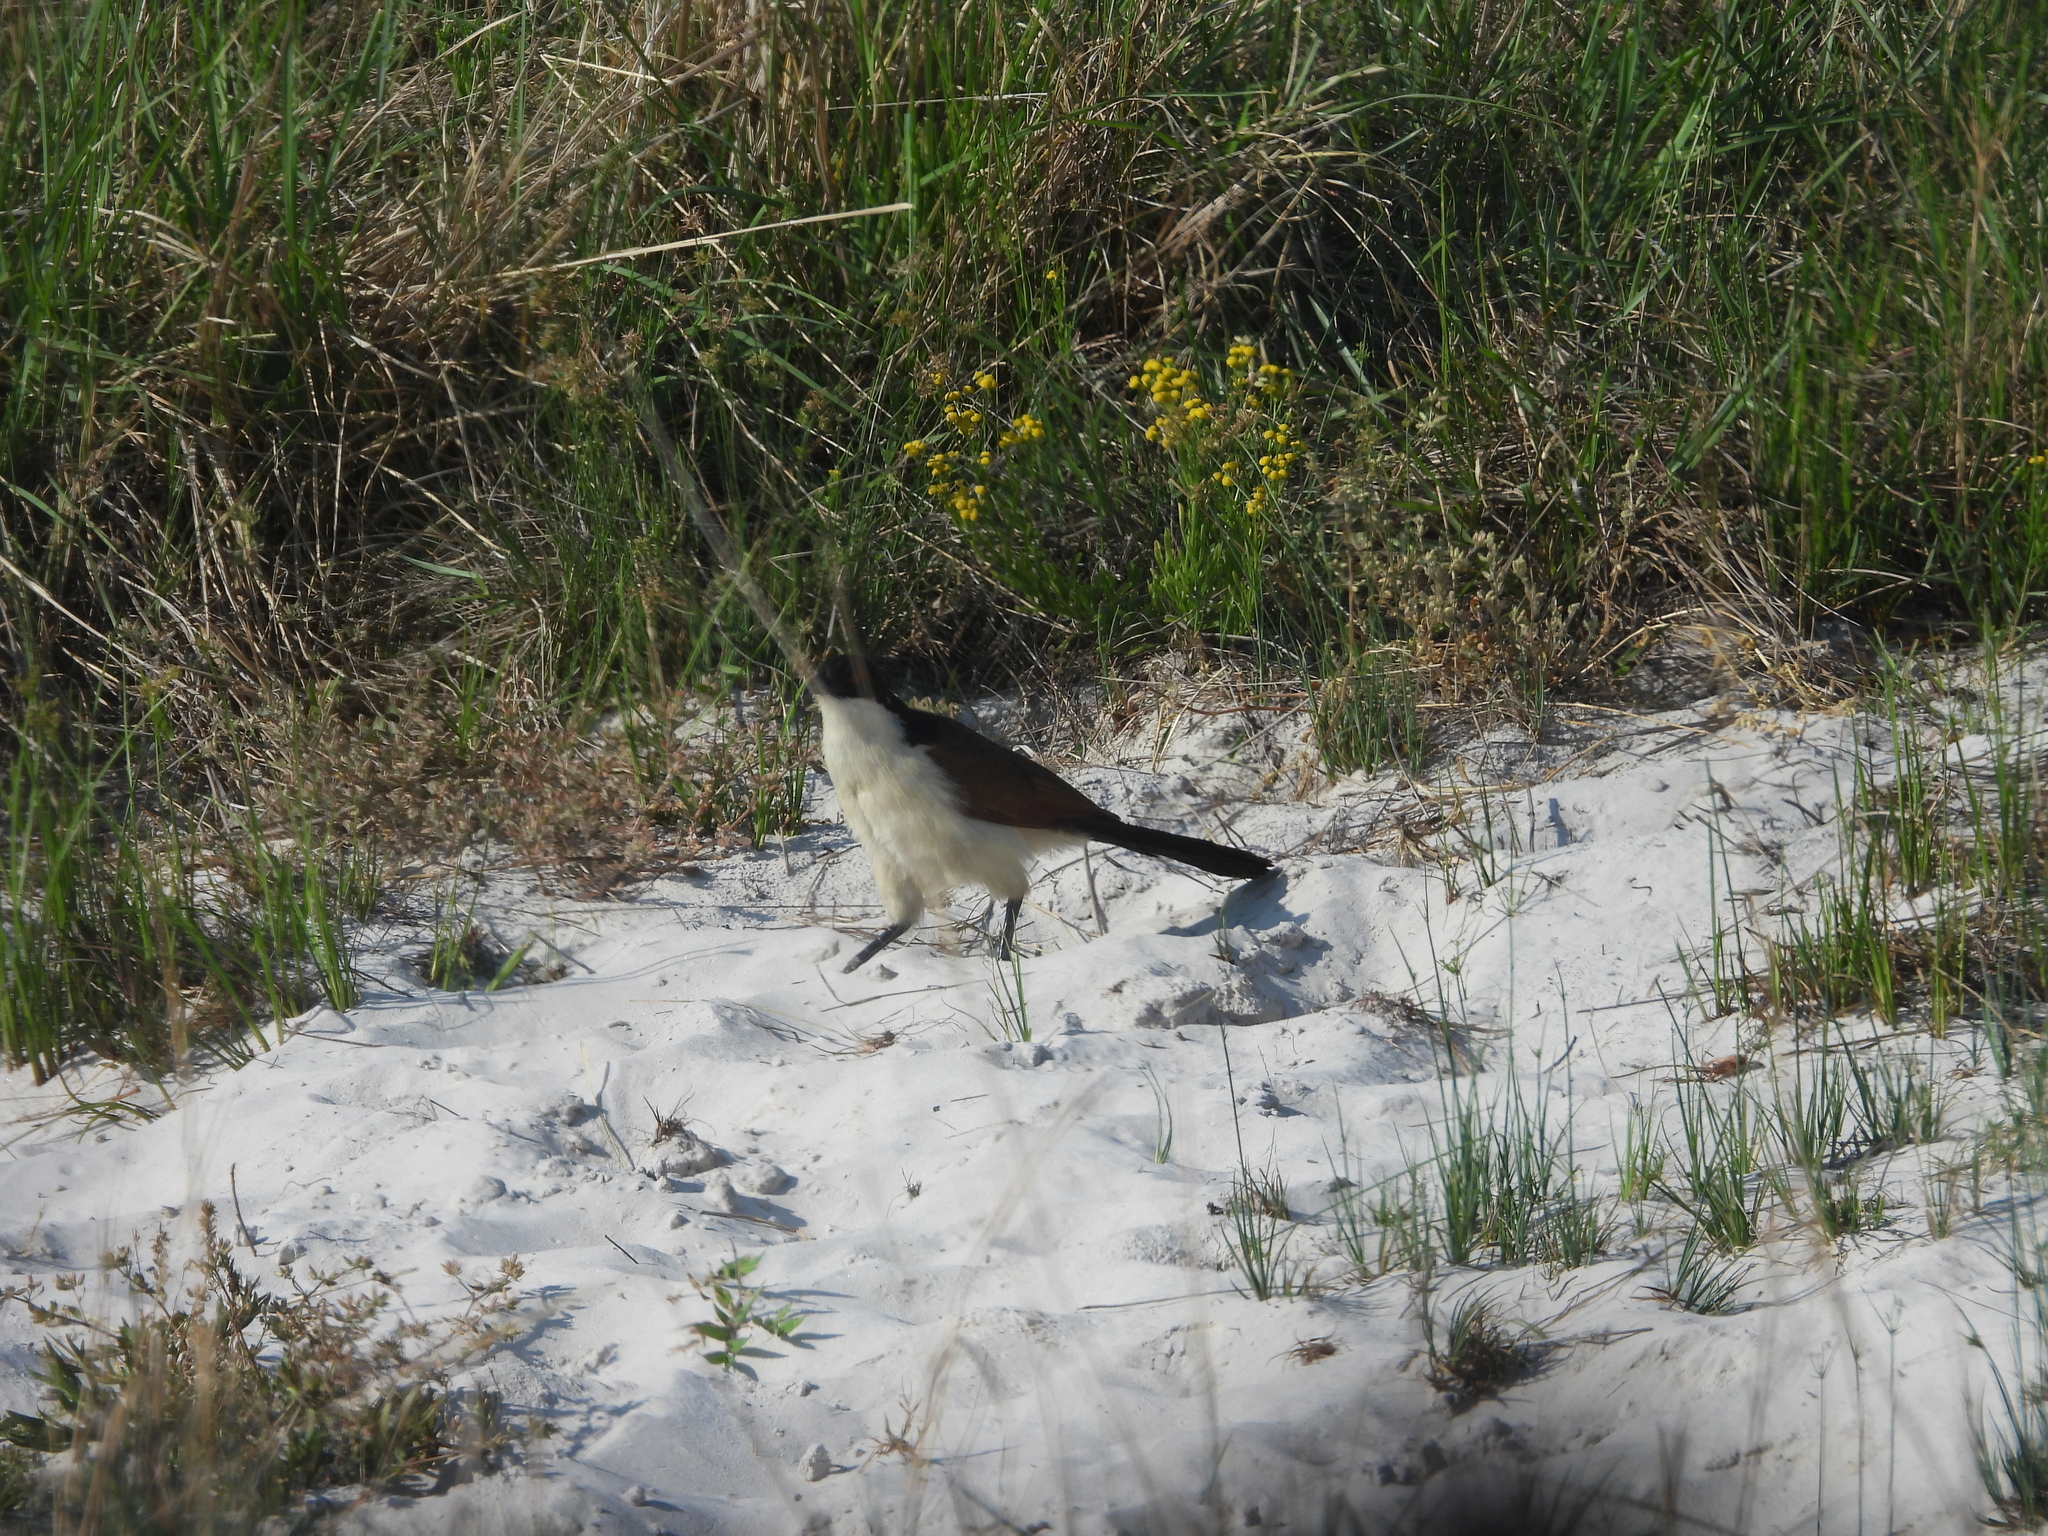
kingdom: Animalia
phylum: Chordata
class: Aves
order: Cuculiformes
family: Cuculidae
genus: Centropus
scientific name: Centropus cupreicaudus
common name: Coppery-tailed coucal
